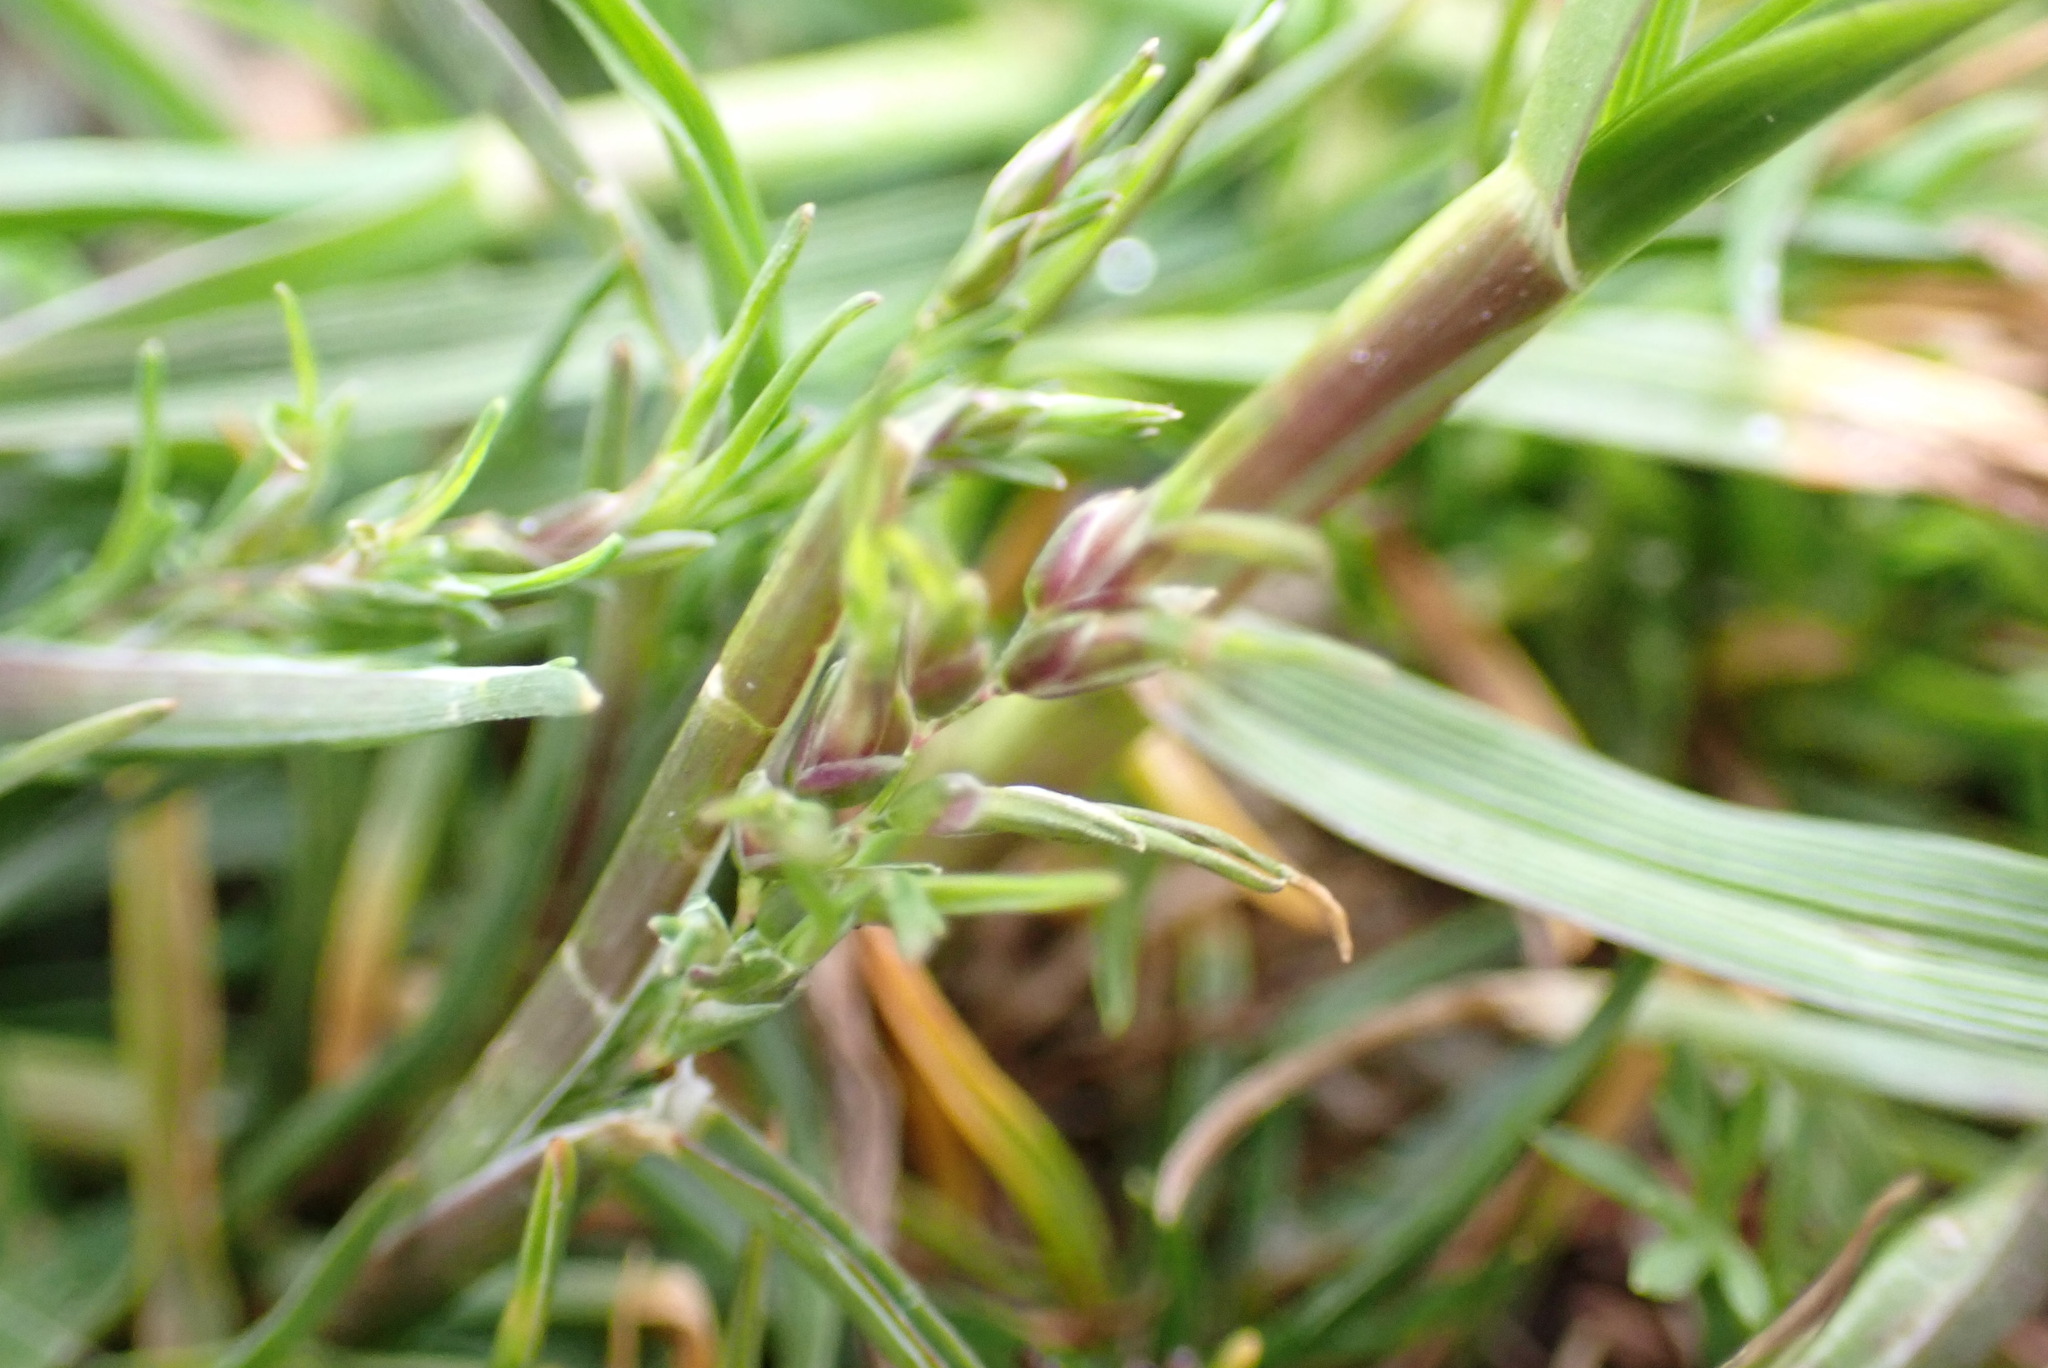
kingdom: Plantae
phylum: Tracheophyta
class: Liliopsida
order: Poales
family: Poaceae
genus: Poa
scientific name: Poa bulbosa
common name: Bulbous bluegrass
